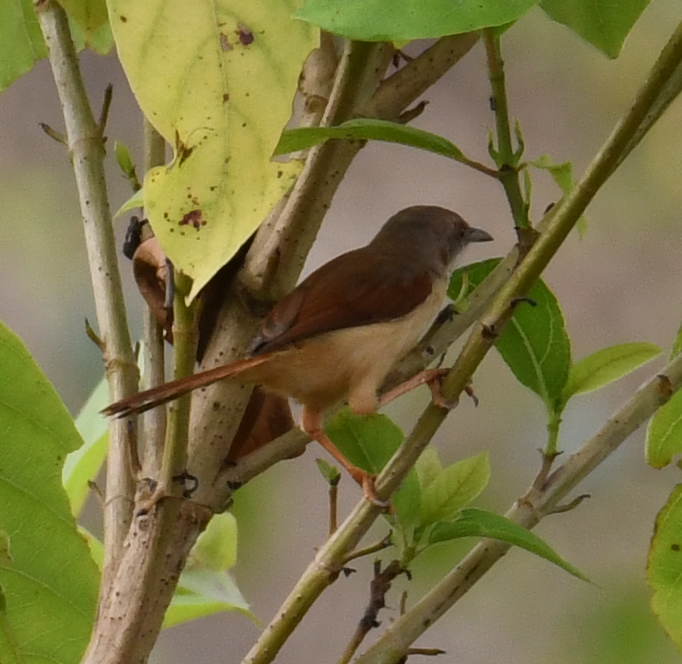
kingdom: Animalia
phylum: Chordata
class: Aves
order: Passeriformes
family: Cisticolidae
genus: Heliolais
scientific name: Heliolais erythropterus
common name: Red-winged warbler
